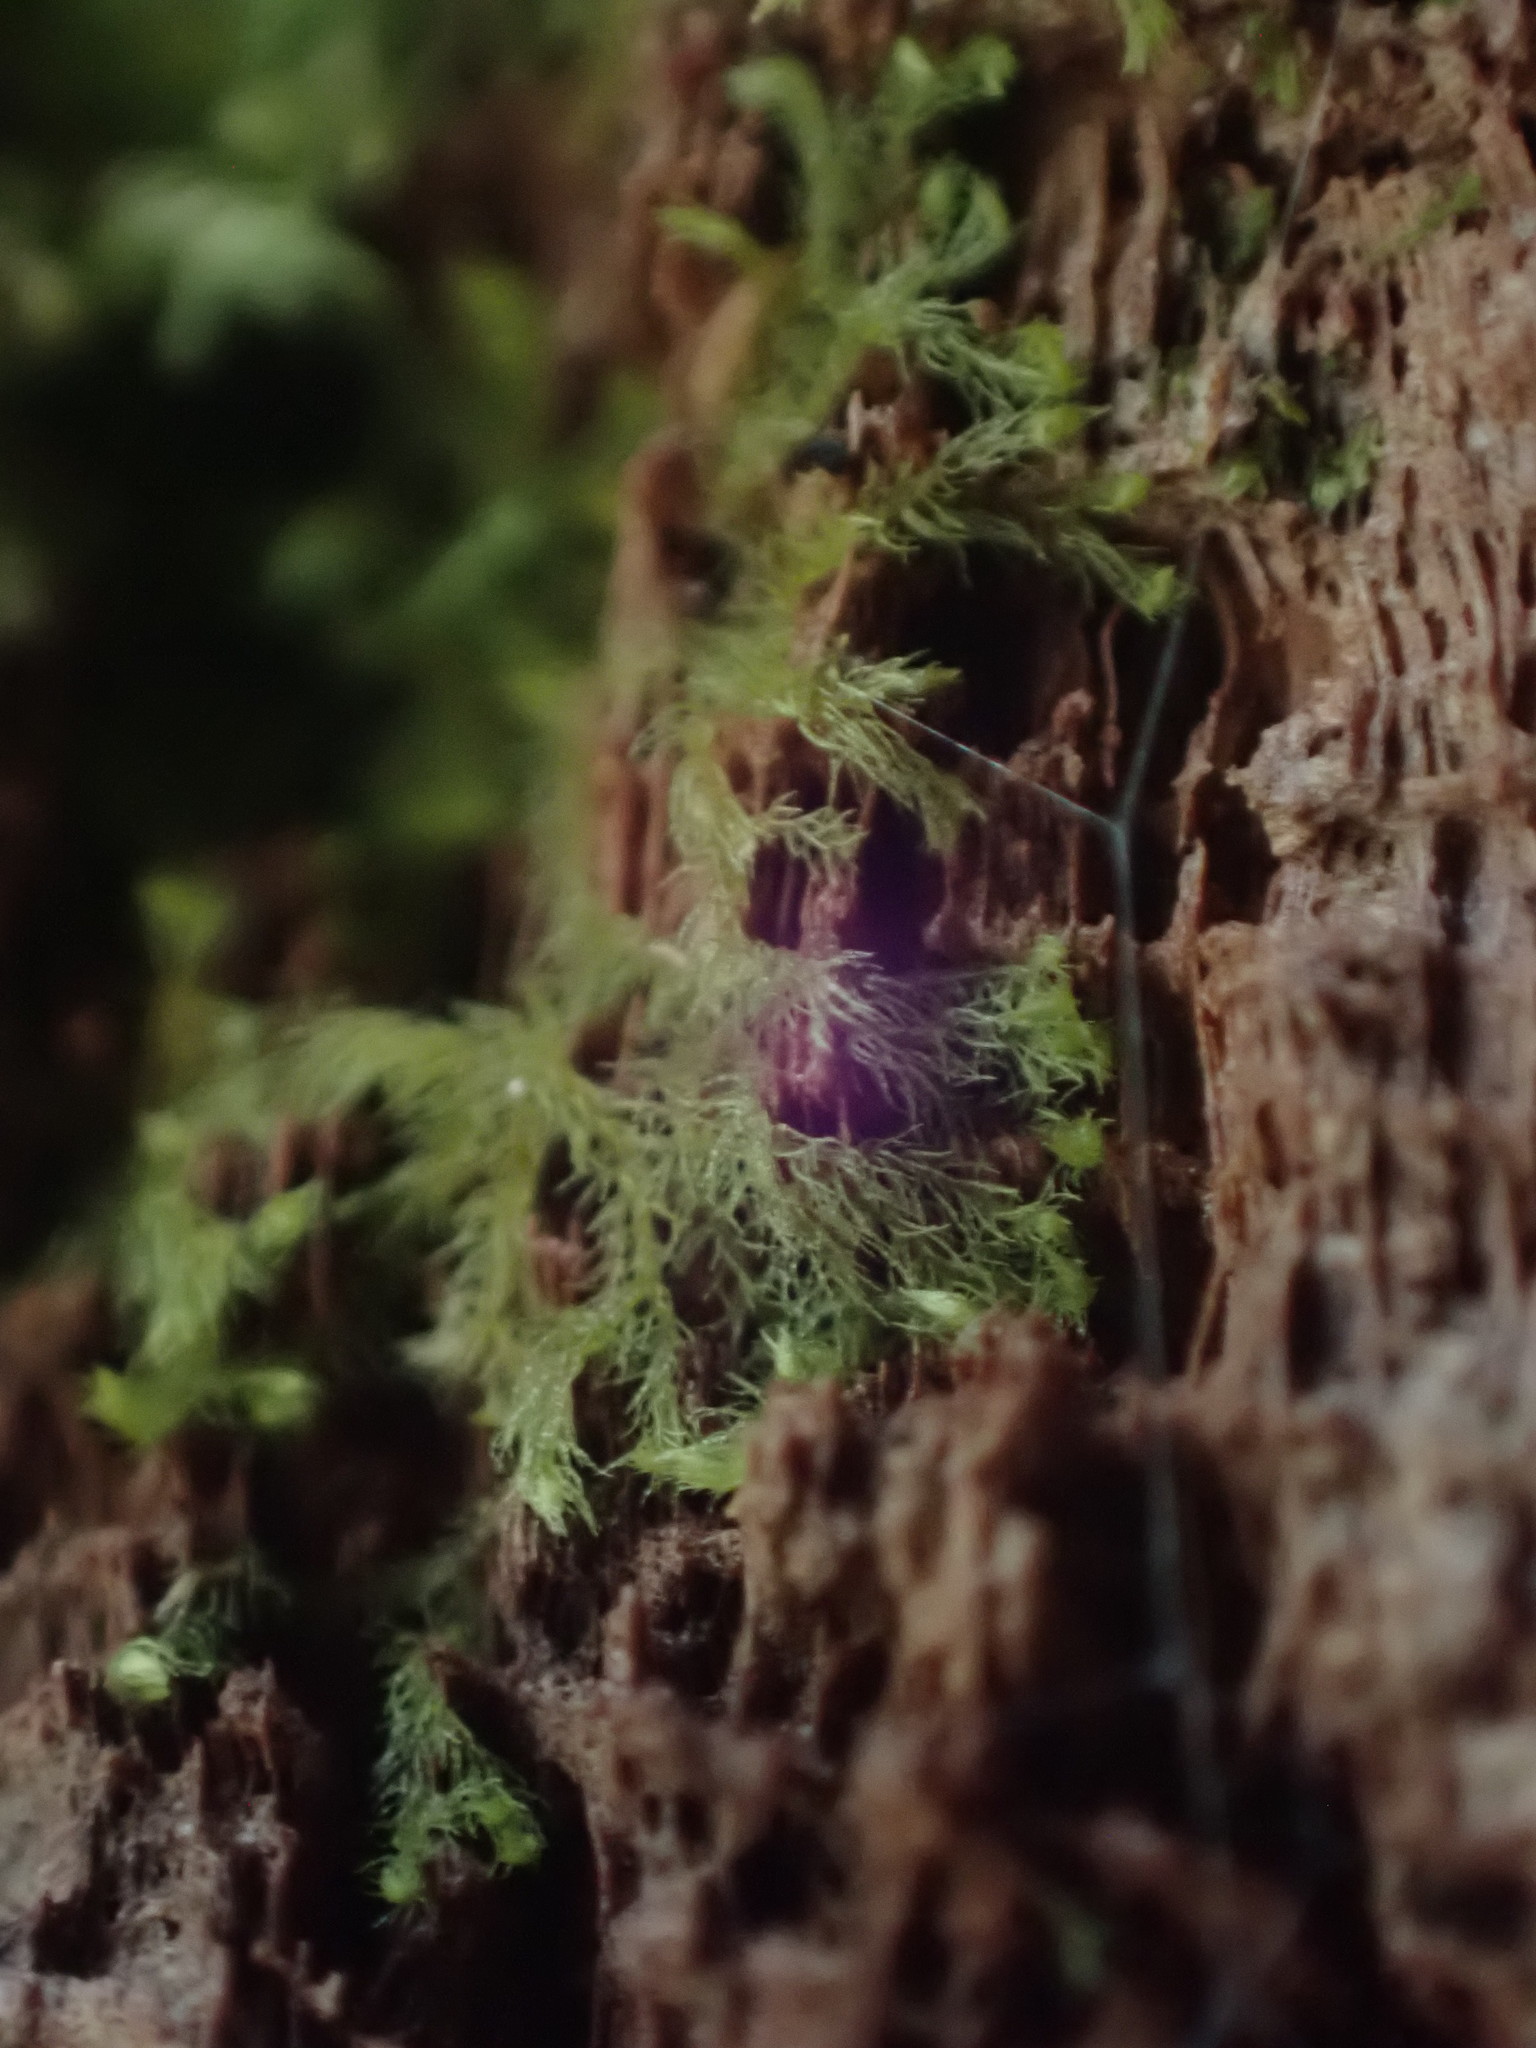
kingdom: Plantae
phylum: Marchantiophyta
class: Jungermanniopsida
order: Jungermanniales
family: Blepharostomataceae
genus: Blepharostoma
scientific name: Blepharostoma trichophyllum
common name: Hairy threadwort
